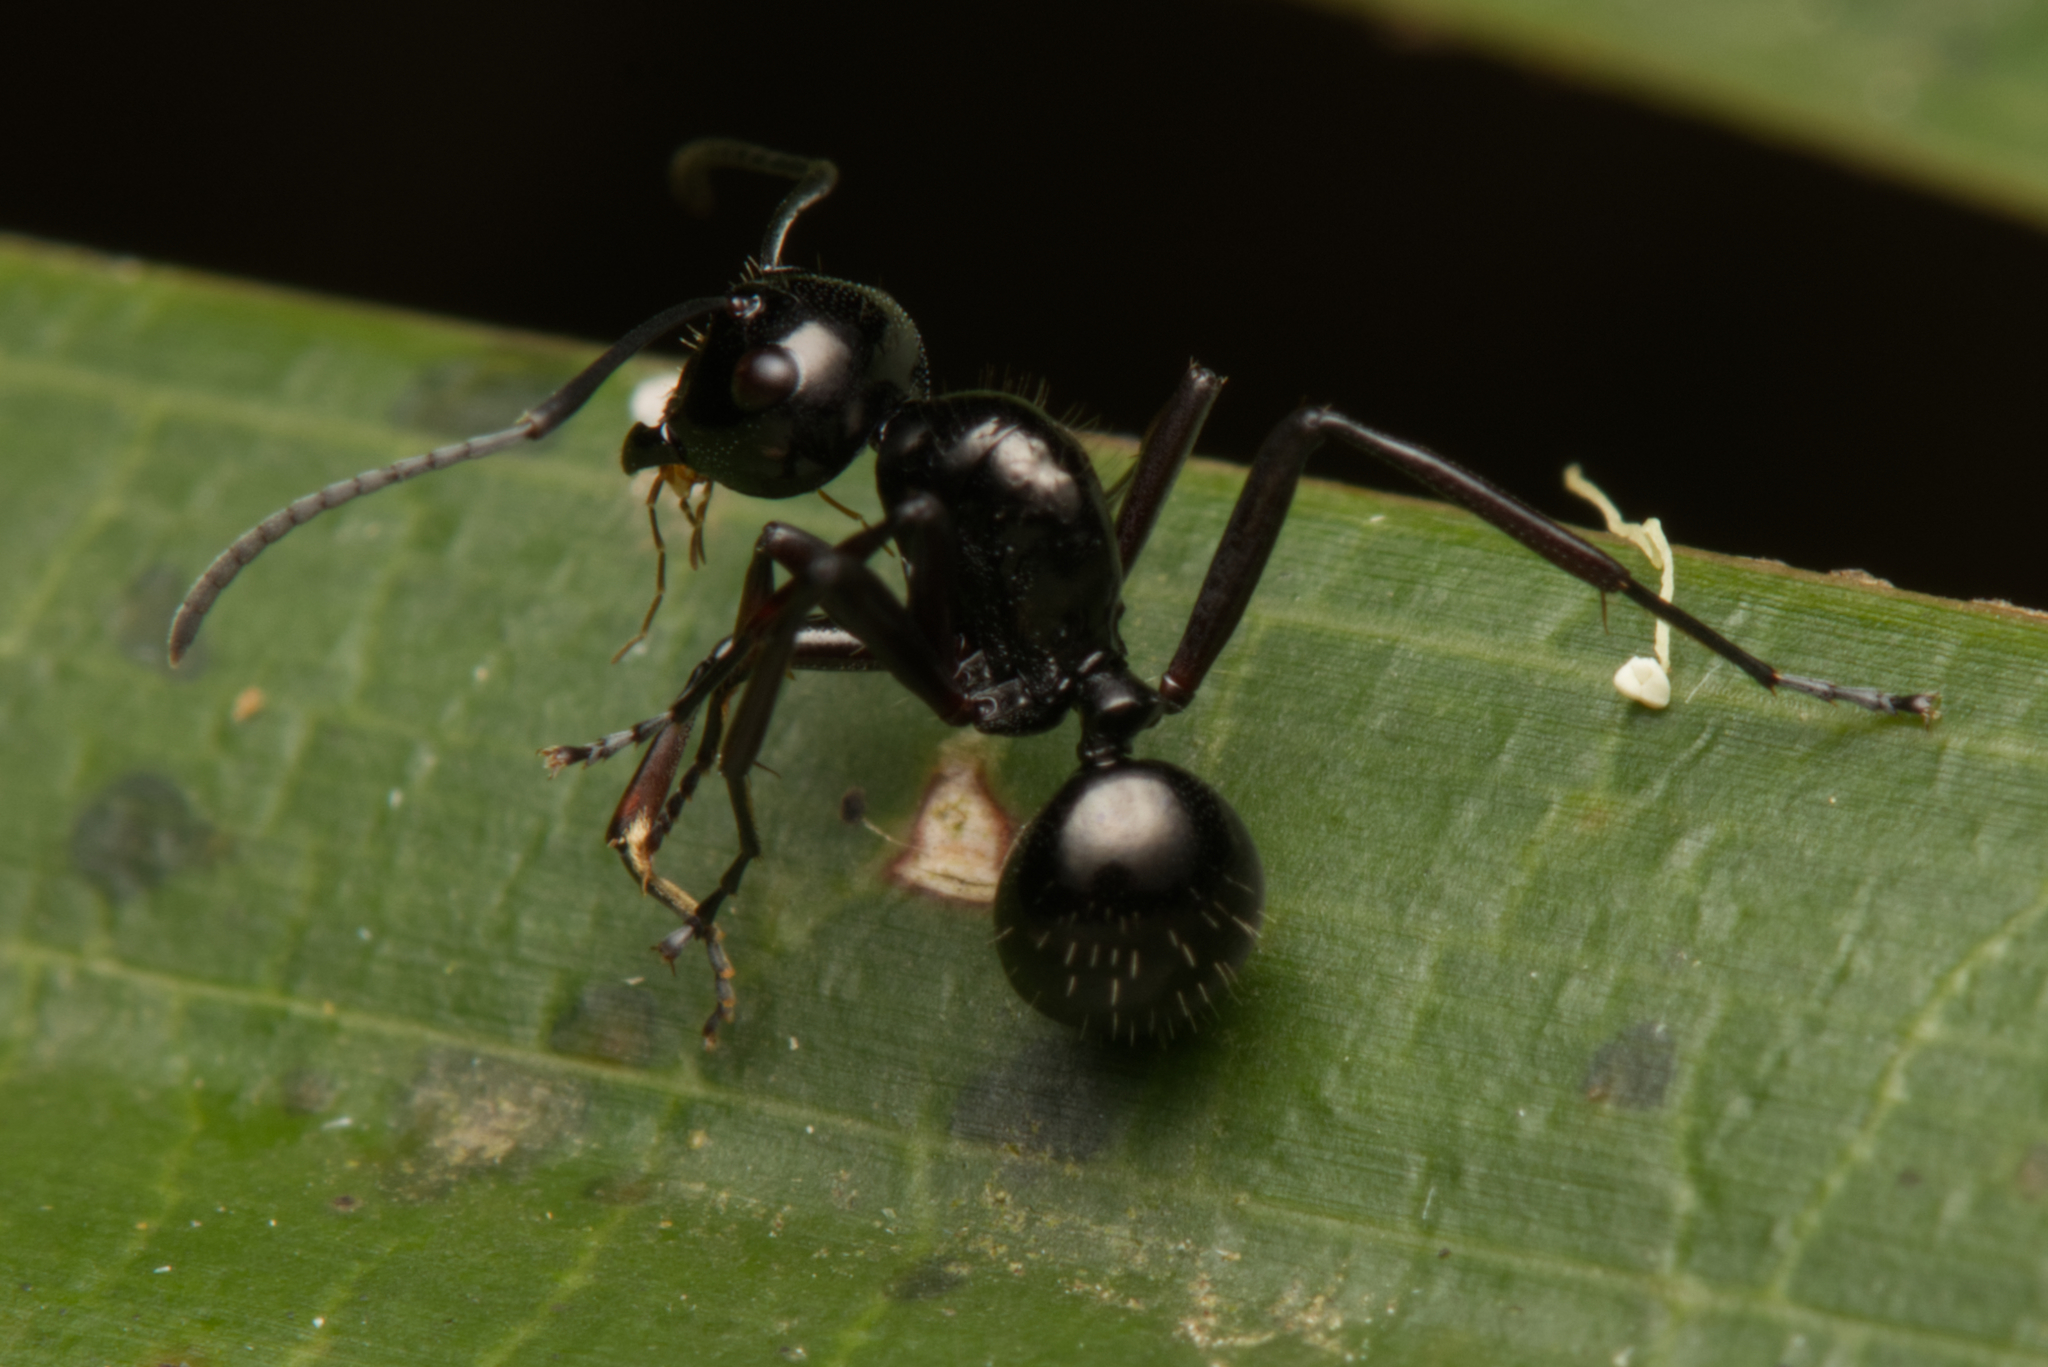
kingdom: Animalia
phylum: Arthropoda
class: Insecta
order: Hymenoptera
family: Formicidae
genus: Polyrhachis
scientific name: Polyrhachis pilosa
